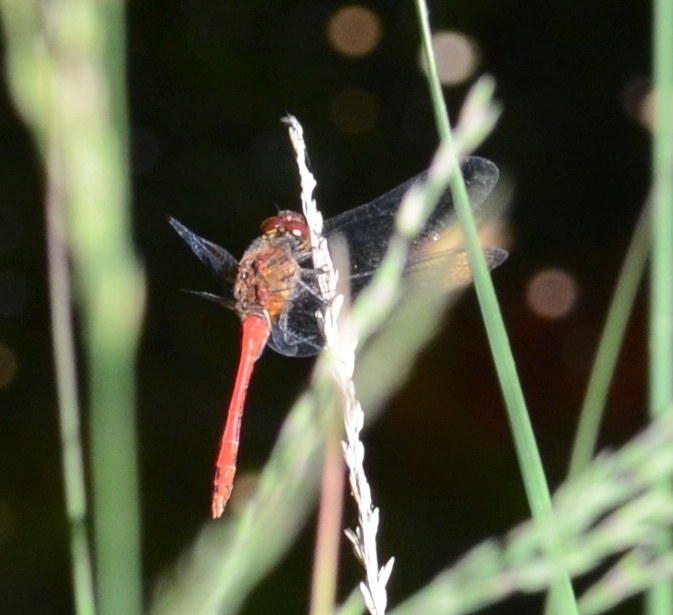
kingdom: Animalia
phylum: Arthropoda
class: Insecta
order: Odonata
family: Libellulidae
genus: Sympetrum
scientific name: Sympetrum sanguineum
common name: Ruddy darter
